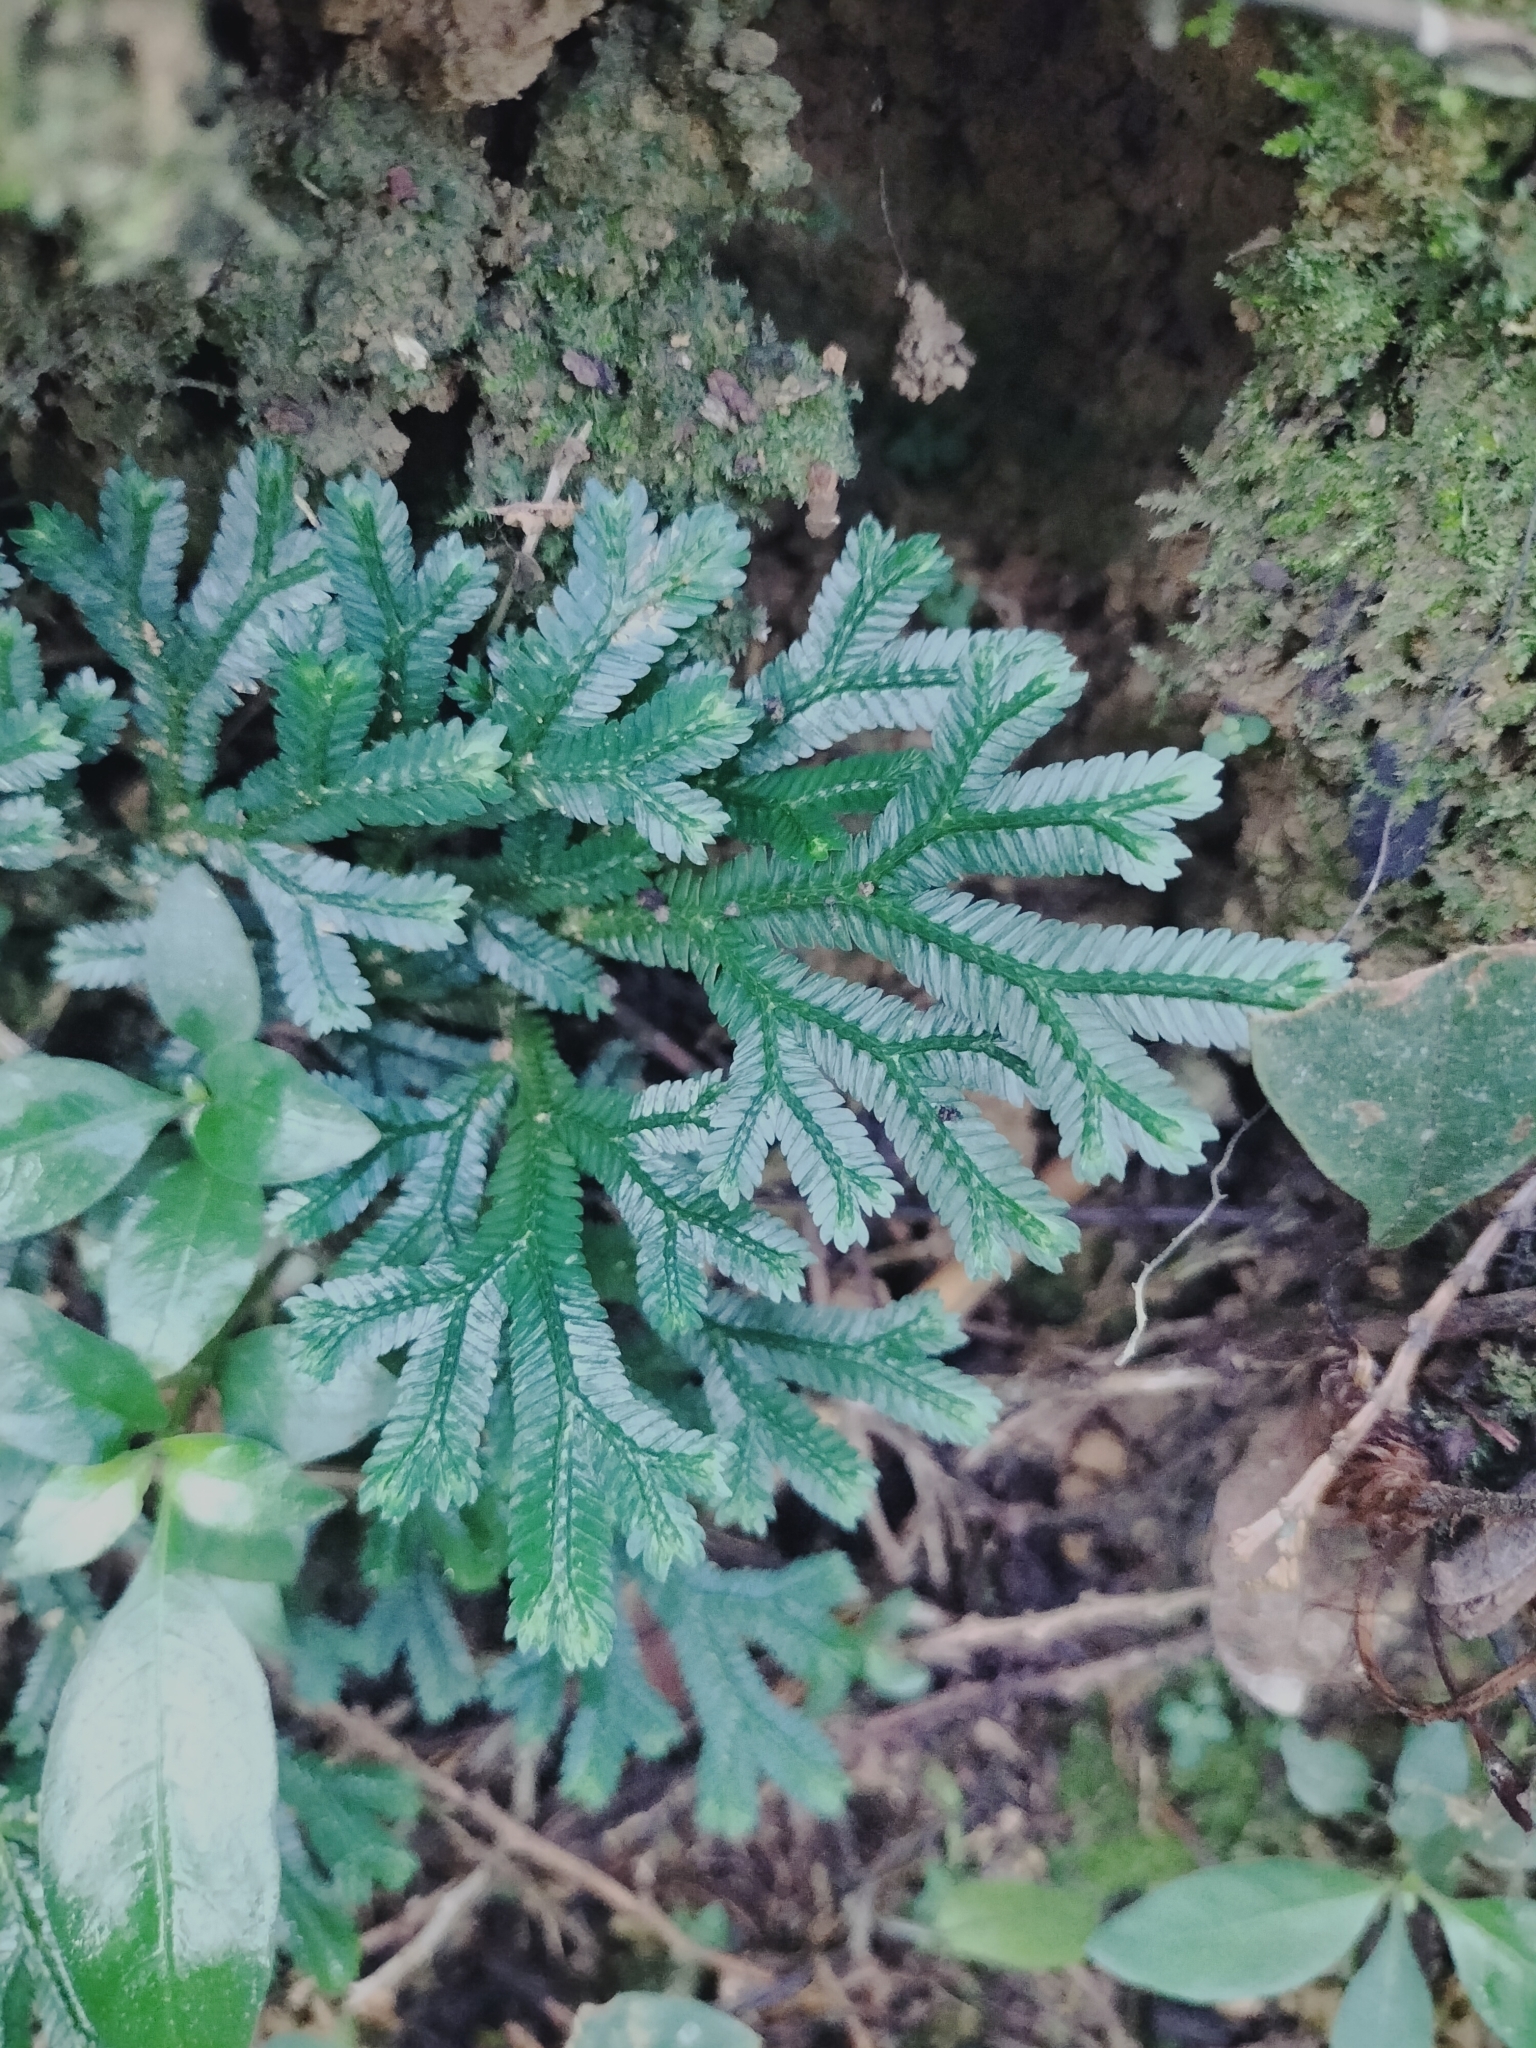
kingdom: Plantae
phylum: Tracheophyta
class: Lycopodiopsida
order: Selaginellales
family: Selaginellaceae
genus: Selaginella
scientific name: Selaginella doederleinii
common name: Greater selaginella
